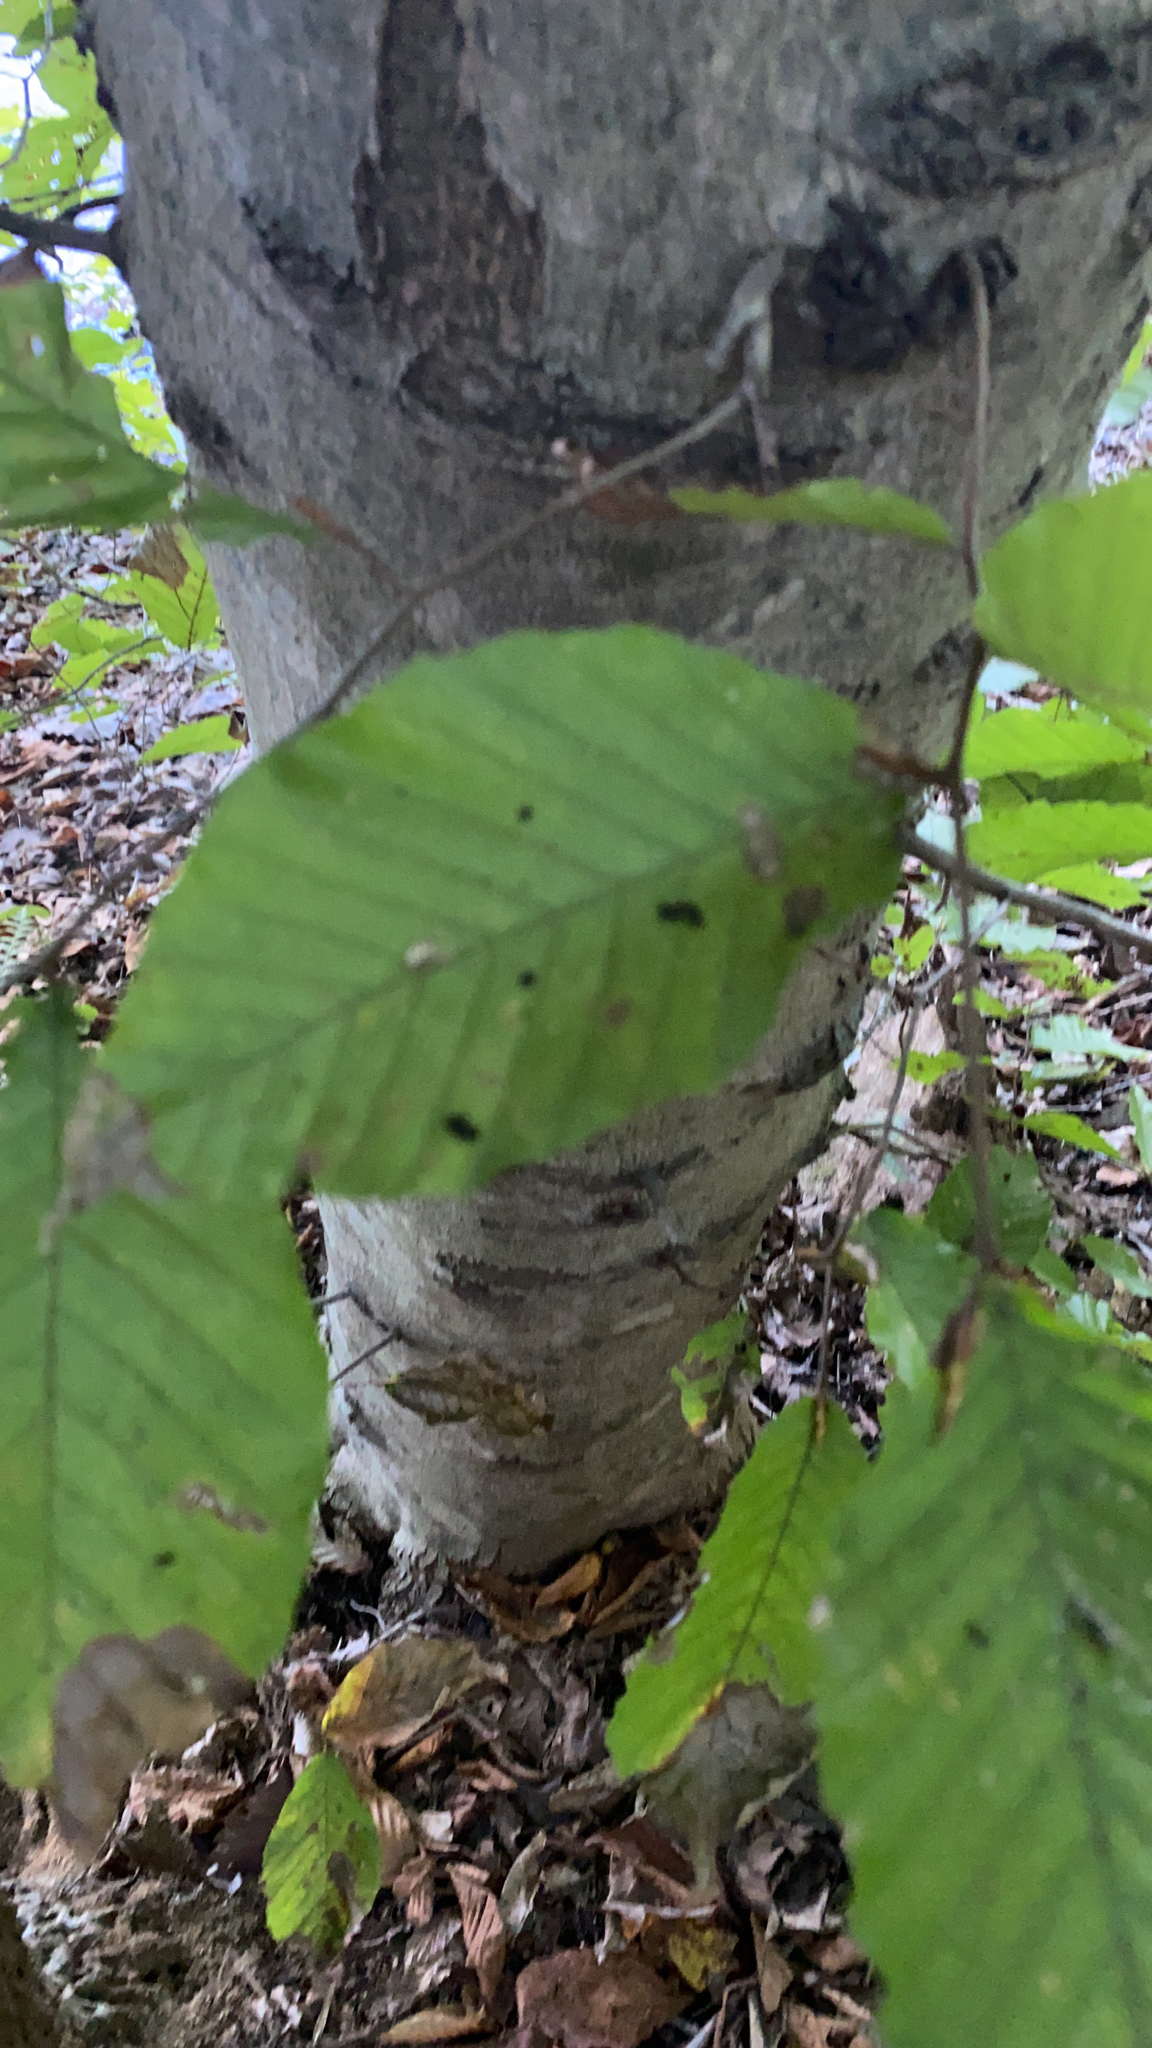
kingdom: Plantae
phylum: Tracheophyta
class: Magnoliopsida
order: Fagales
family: Fagaceae
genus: Fagus
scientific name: Fagus grandifolia
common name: American beech
